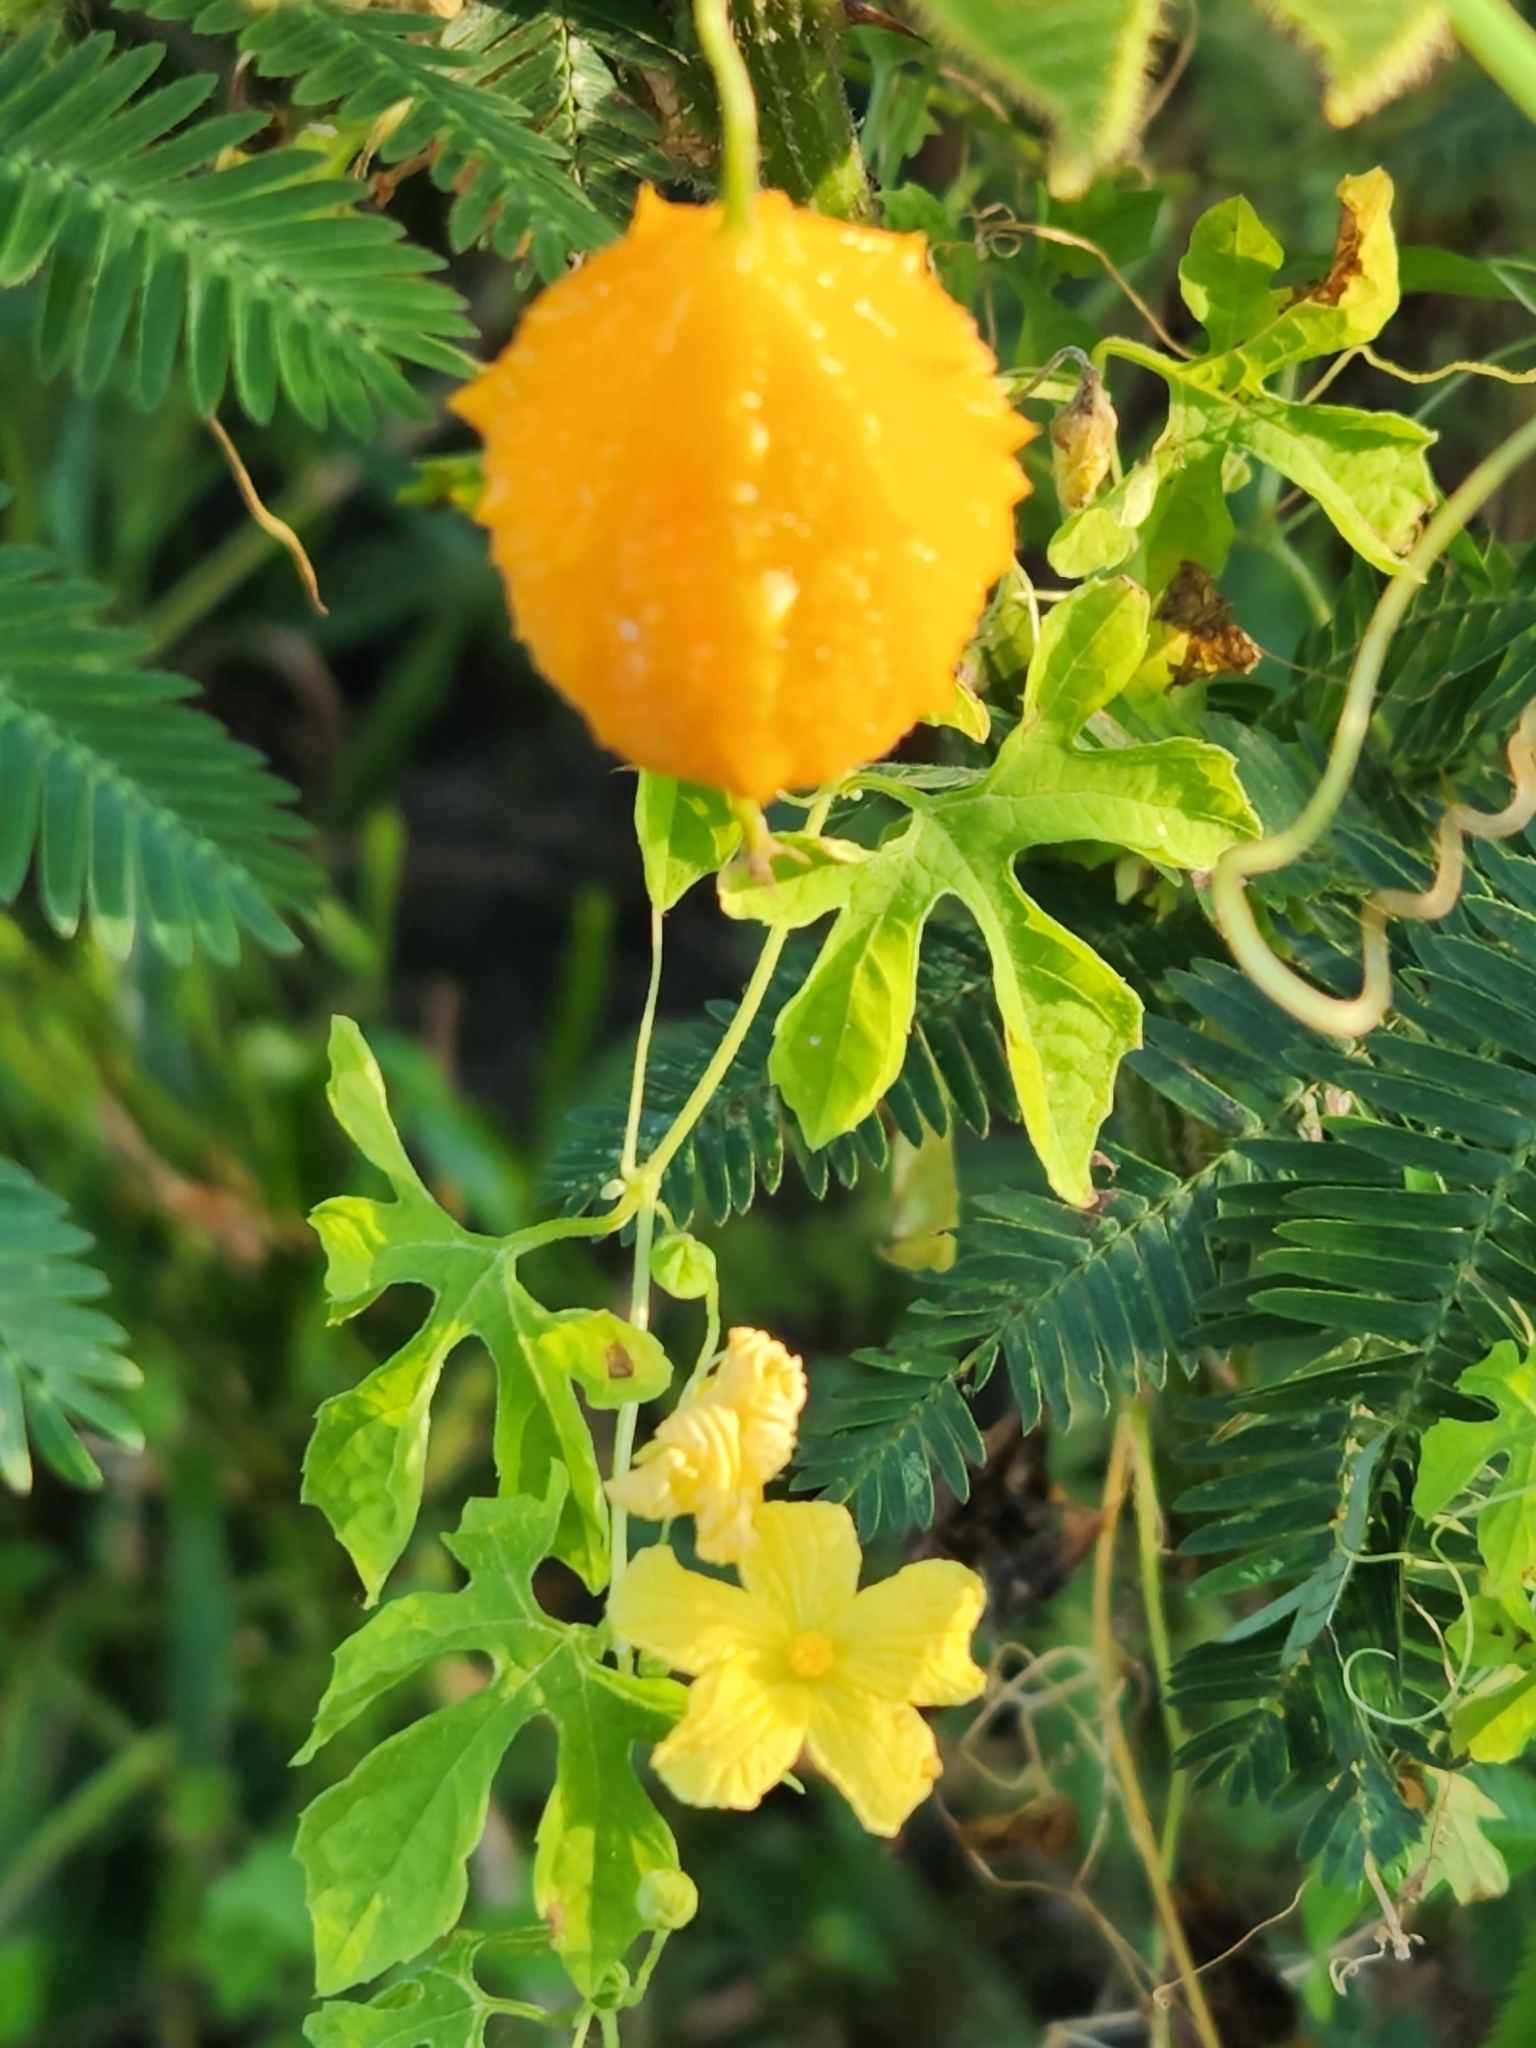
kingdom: Plantae
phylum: Tracheophyta
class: Magnoliopsida
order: Cucurbitales
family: Cucurbitaceae
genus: Momordica
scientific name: Momordica charantia
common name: Balsampear
